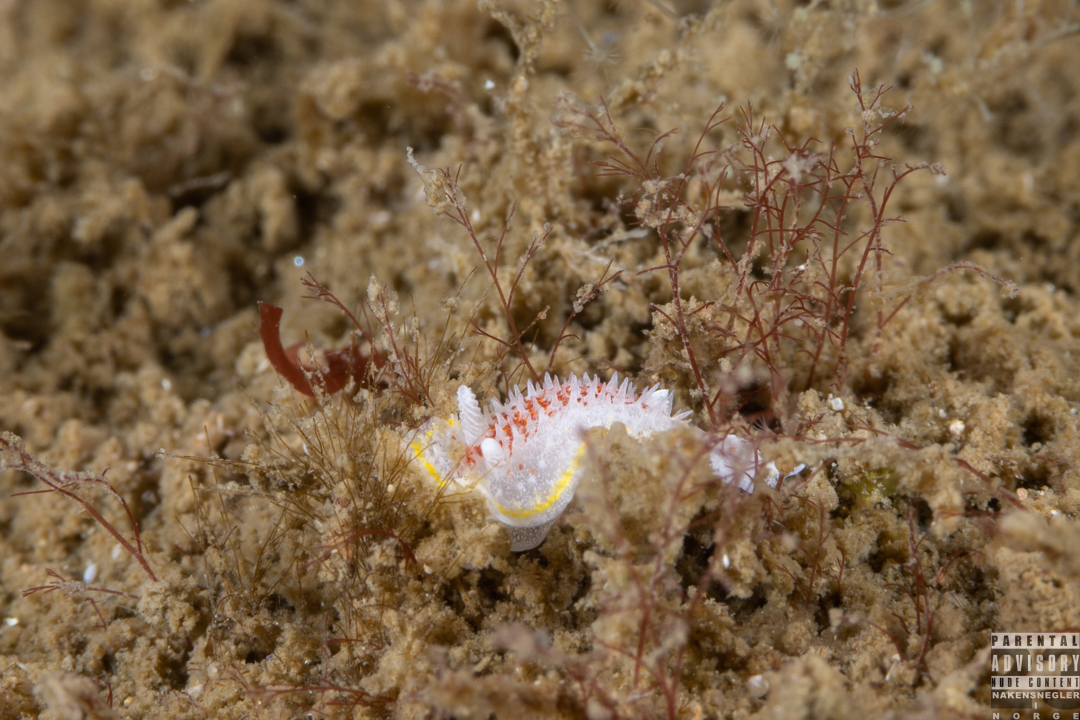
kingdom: Animalia
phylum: Mollusca
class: Gastropoda
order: Nudibranchia
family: Calycidorididae
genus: Diaphorodoris
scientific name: Diaphorodoris luteocincta
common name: Fried egg nudibranch
